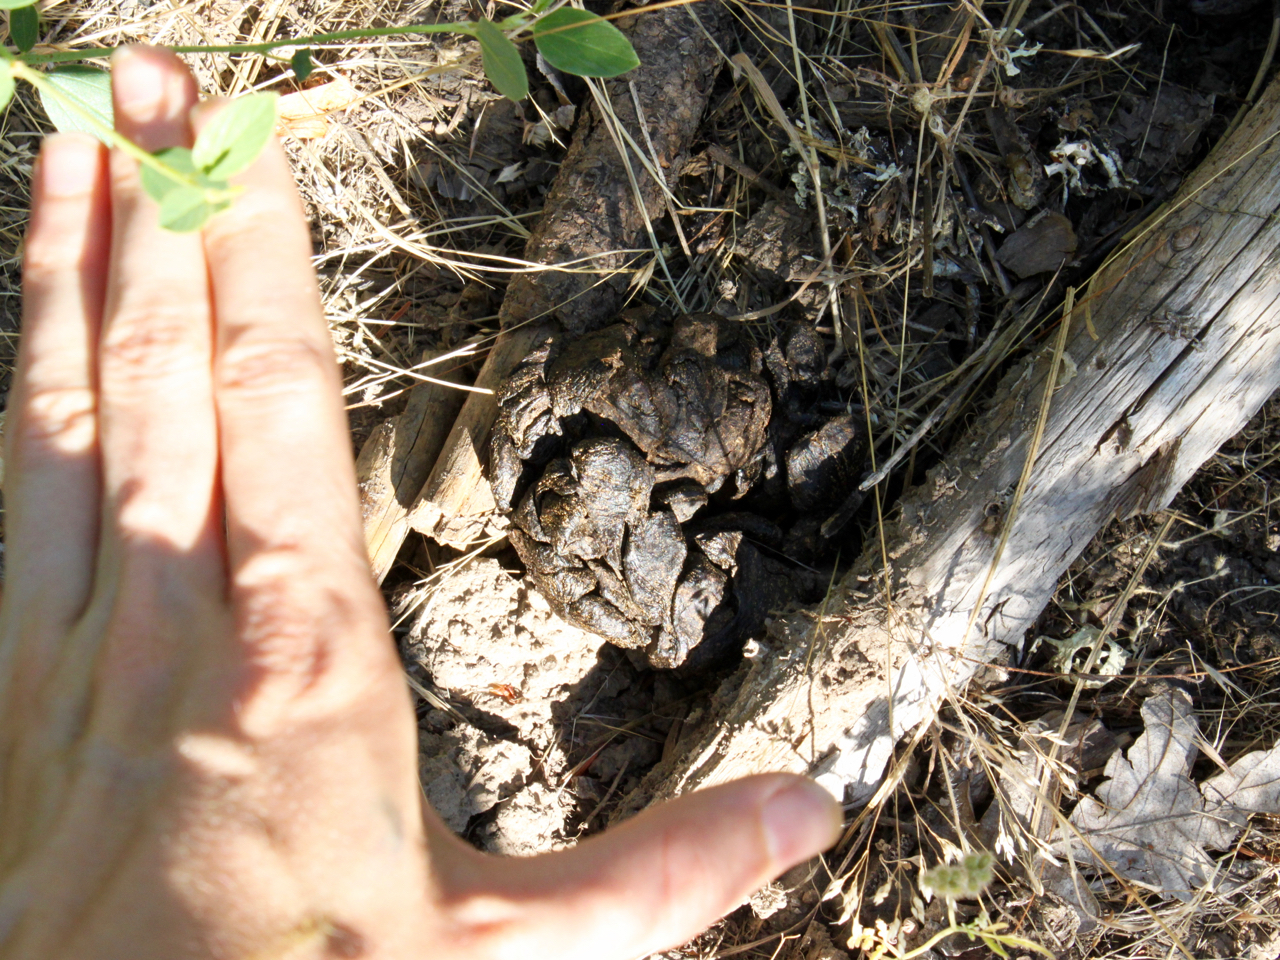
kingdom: Animalia
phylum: Chordata
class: Mammalia
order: Artiodactyla
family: Cervidae
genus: Cervus
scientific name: Cervus elaphus
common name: Red deer
